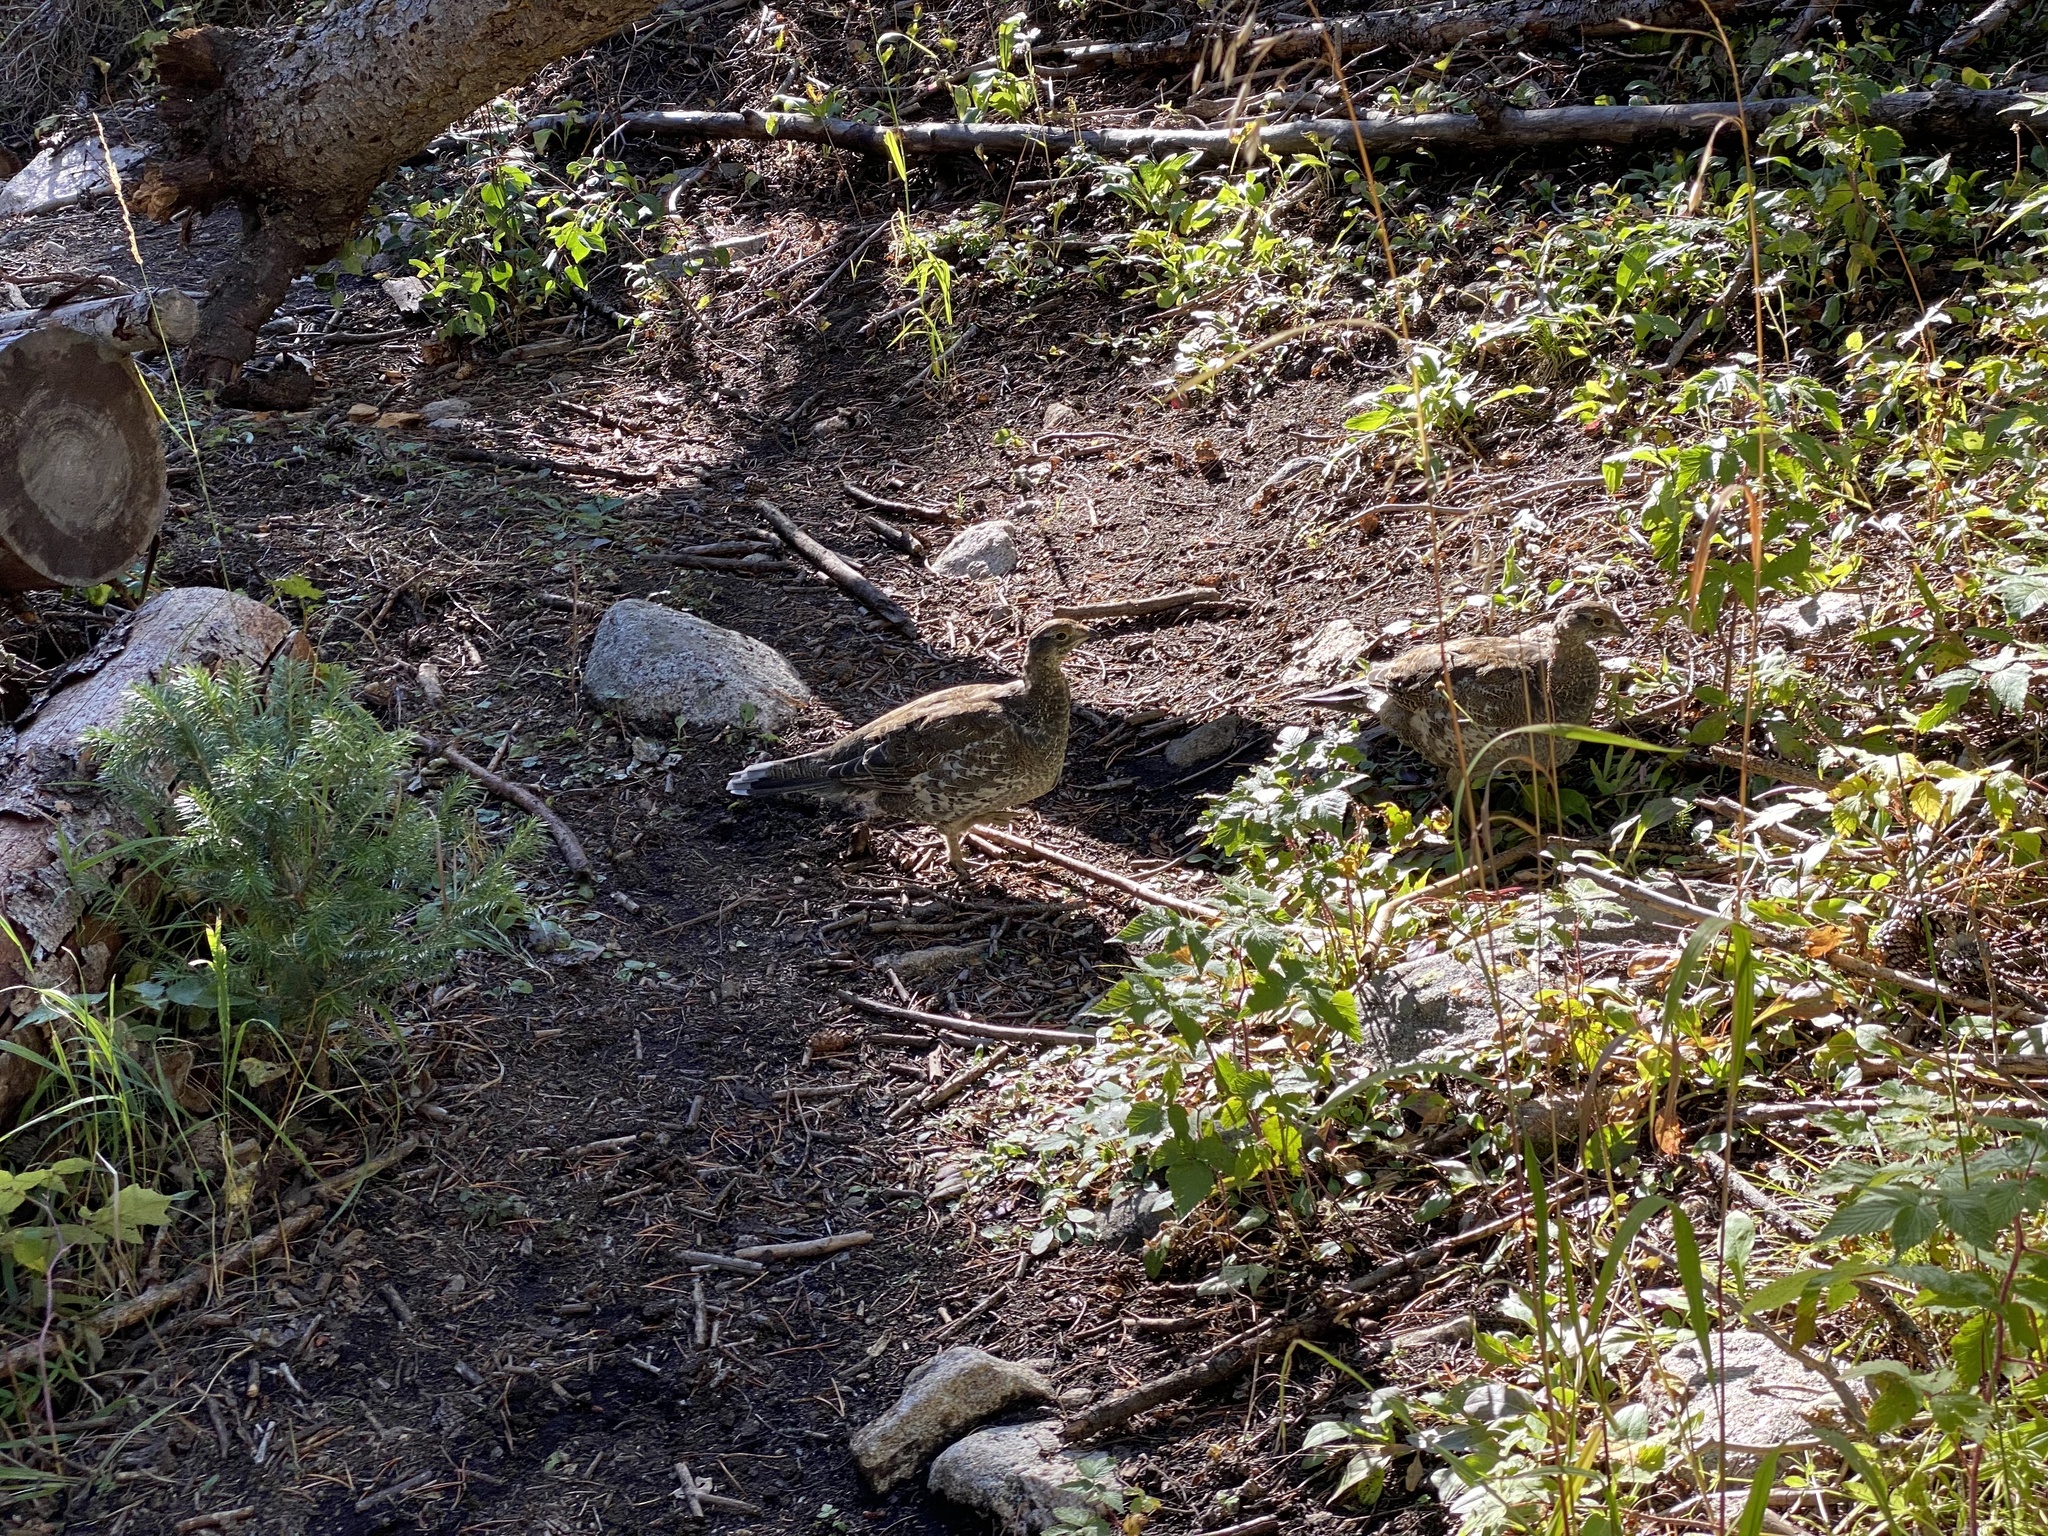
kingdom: Animalia
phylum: Chordata
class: Aves
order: Galliformes
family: Phasianidae
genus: Dendragapus
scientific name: Dendragapus obscurus
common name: Dusky grouse
